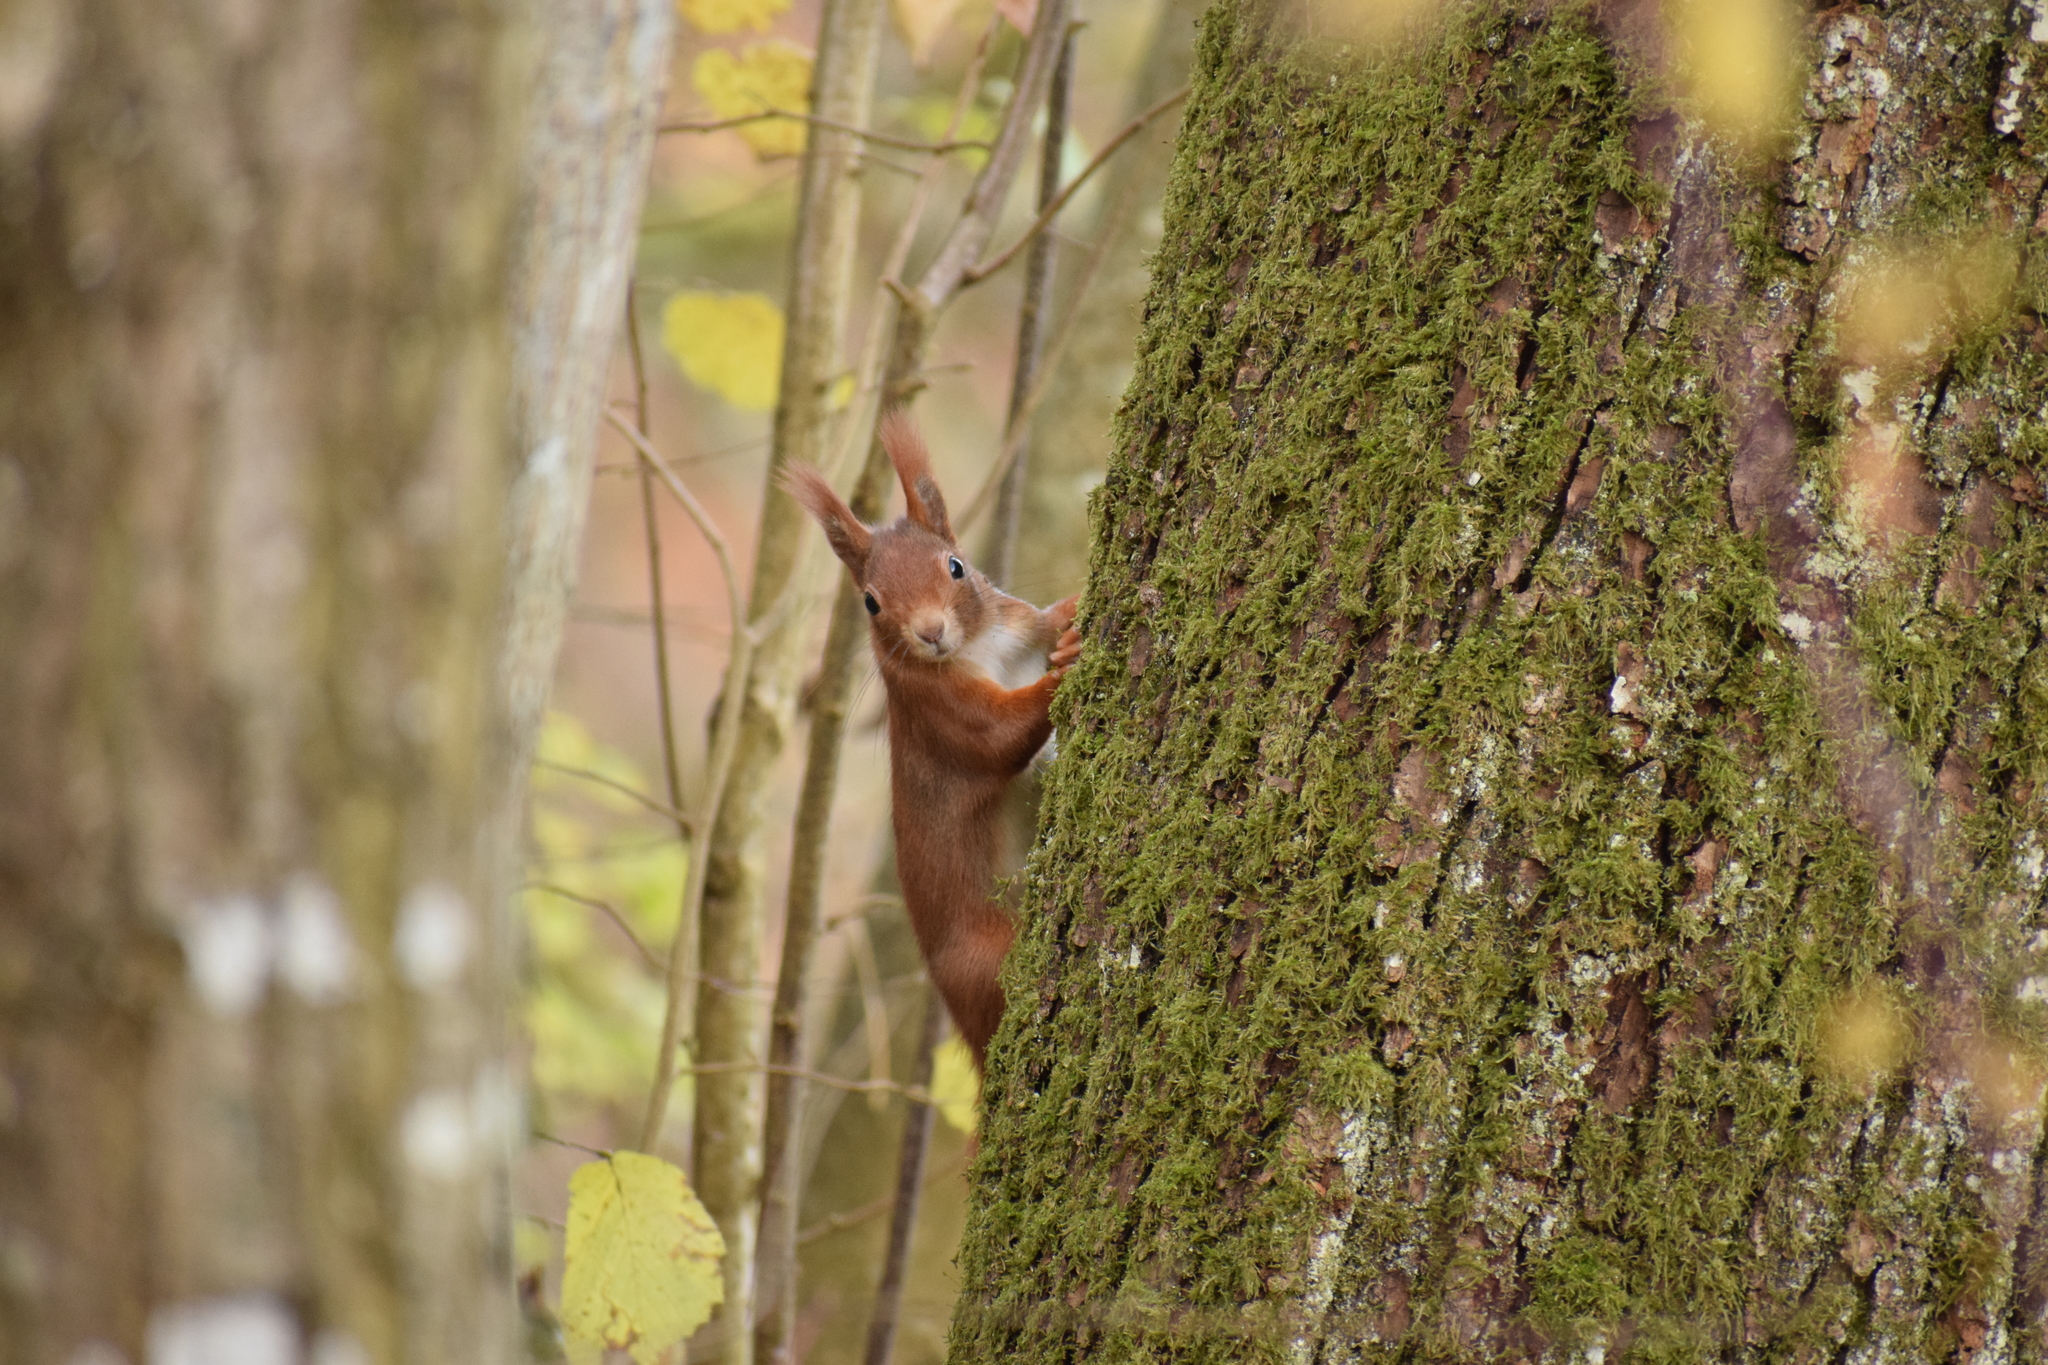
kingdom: Animalia
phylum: Chordata
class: Mammalia
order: Rodentia
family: Sciuridae
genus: Sciurus
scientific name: Sciurus vulgaris
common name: Eurasian red squirrel
